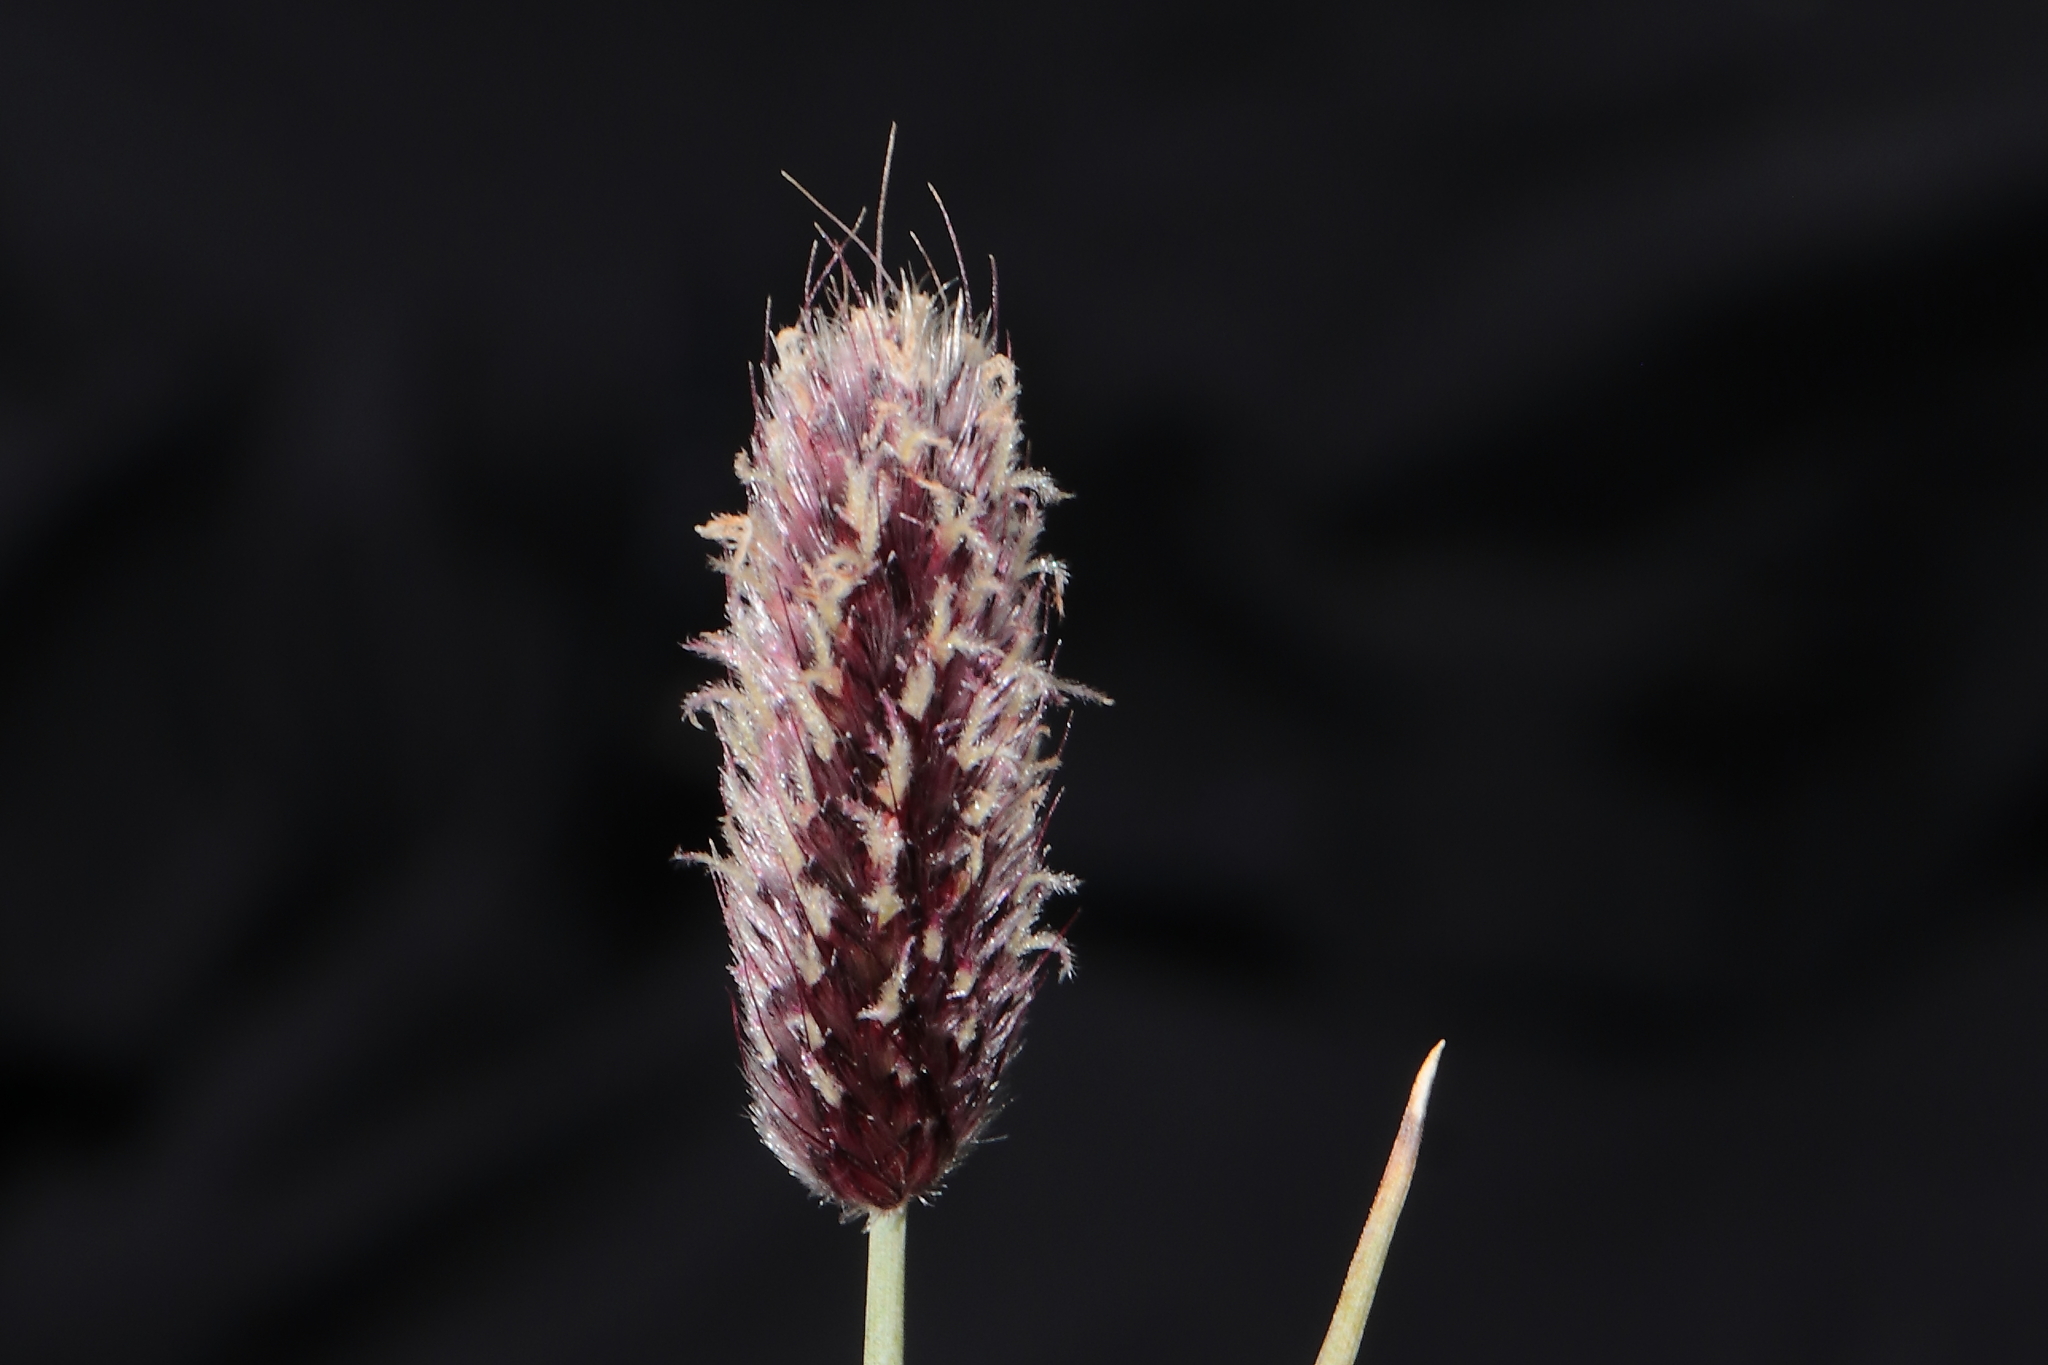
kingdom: Plantae
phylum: Tracheophyta
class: Liliopsida
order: Poales
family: Poaceae
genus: Alopecurus
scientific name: Alopecurus magellanicus
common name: Alpine foxtail
